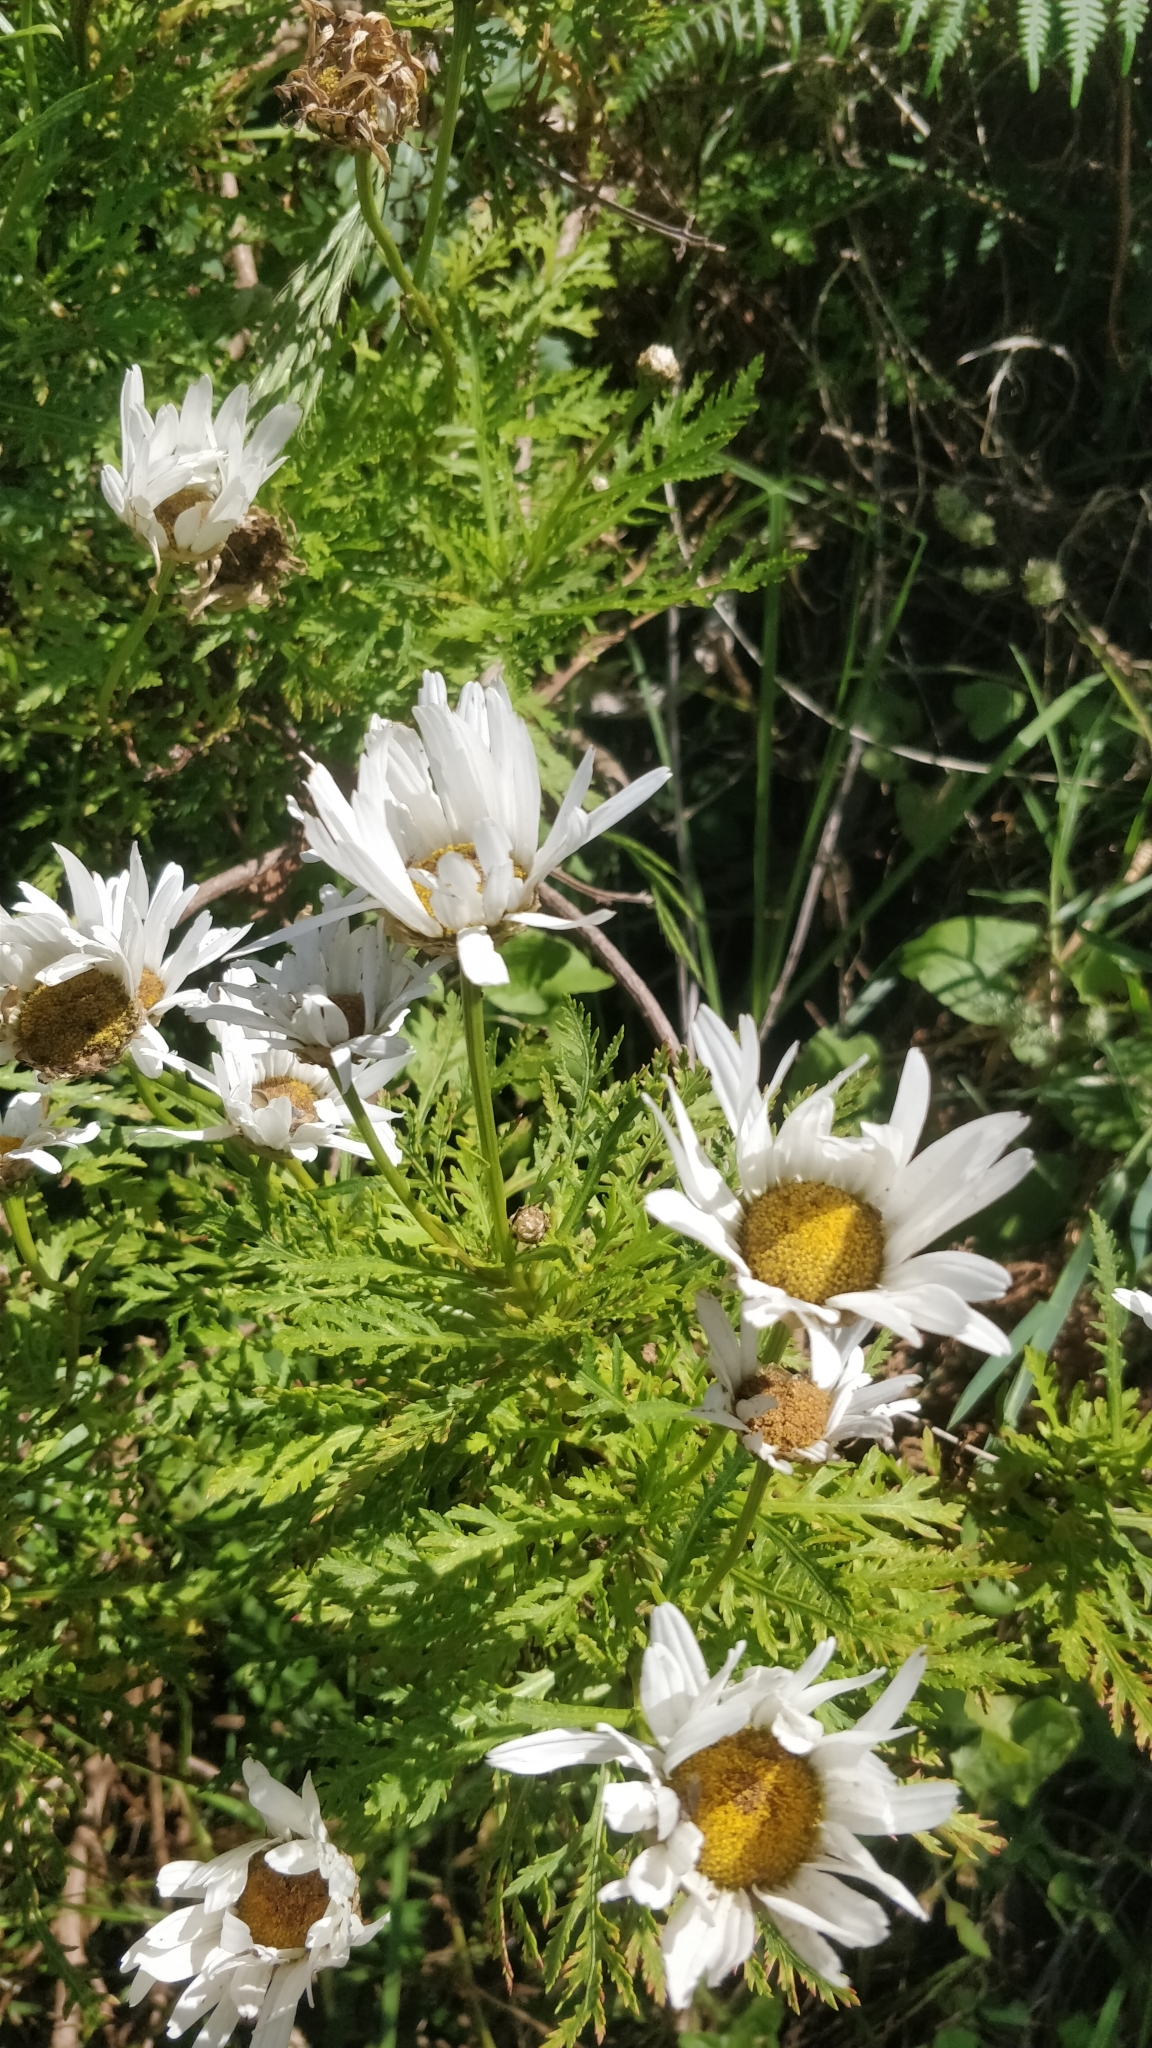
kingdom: Plantae
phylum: Tracheophyta
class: Magnoliopsida
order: Asterales
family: Asteraceae
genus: Argyranthemum
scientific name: Argyranthemum dissectum
